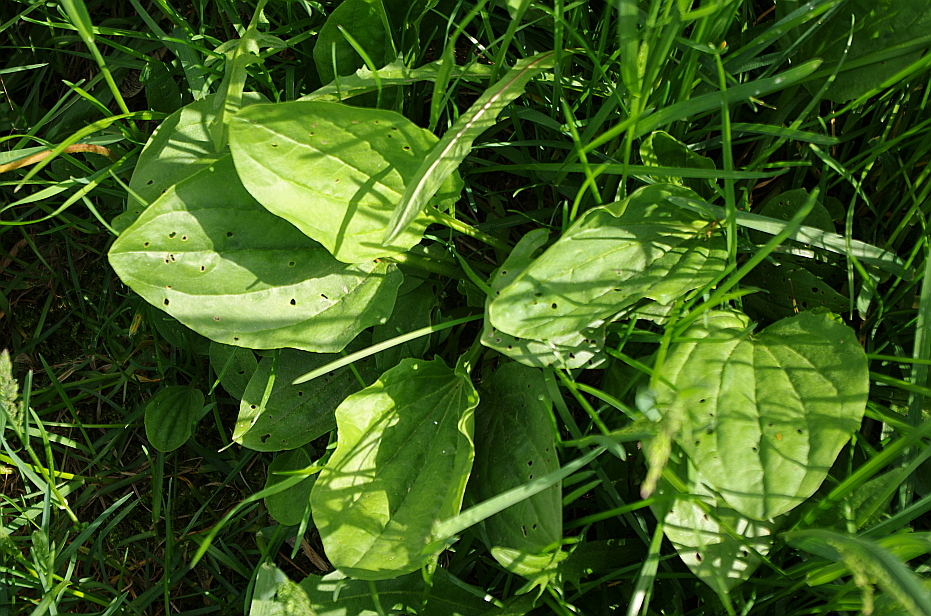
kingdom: Plantae
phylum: Tracheophyta
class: Magnoliopsida
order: Lamiales
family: Plantaginaceae
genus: Plantago
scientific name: Plantago major
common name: Common plantain
